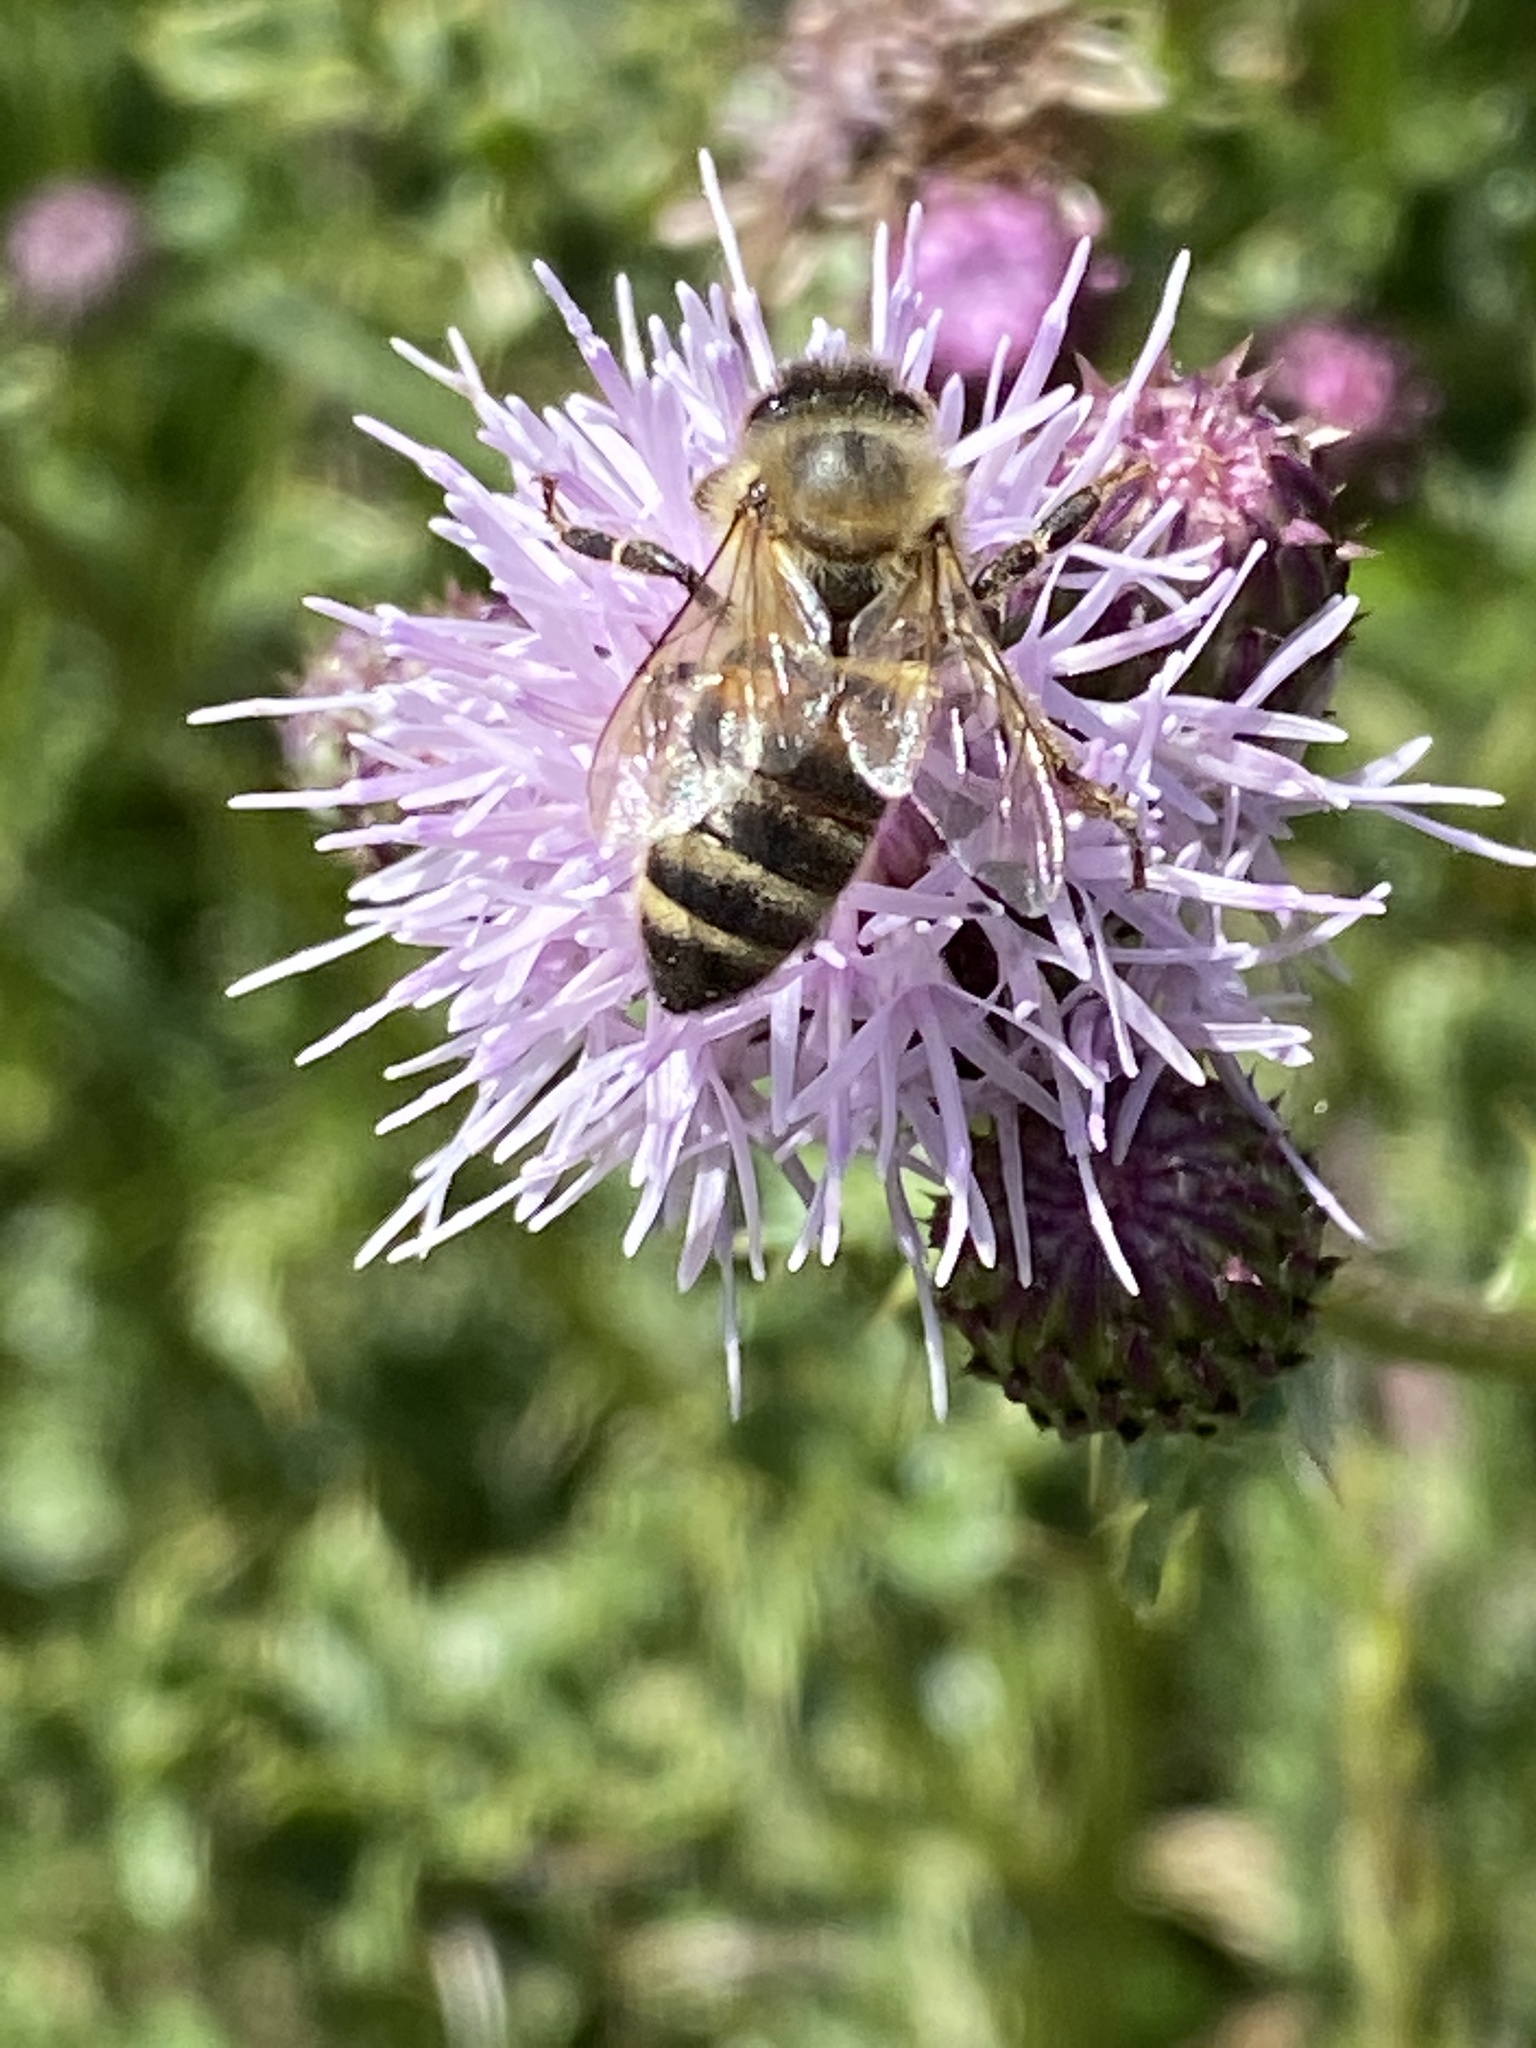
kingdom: Animalia
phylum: Arthropoda
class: Insecta
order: Hymenoptera
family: Apidae
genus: Apis
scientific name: Apis mellifera
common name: Honey bee
